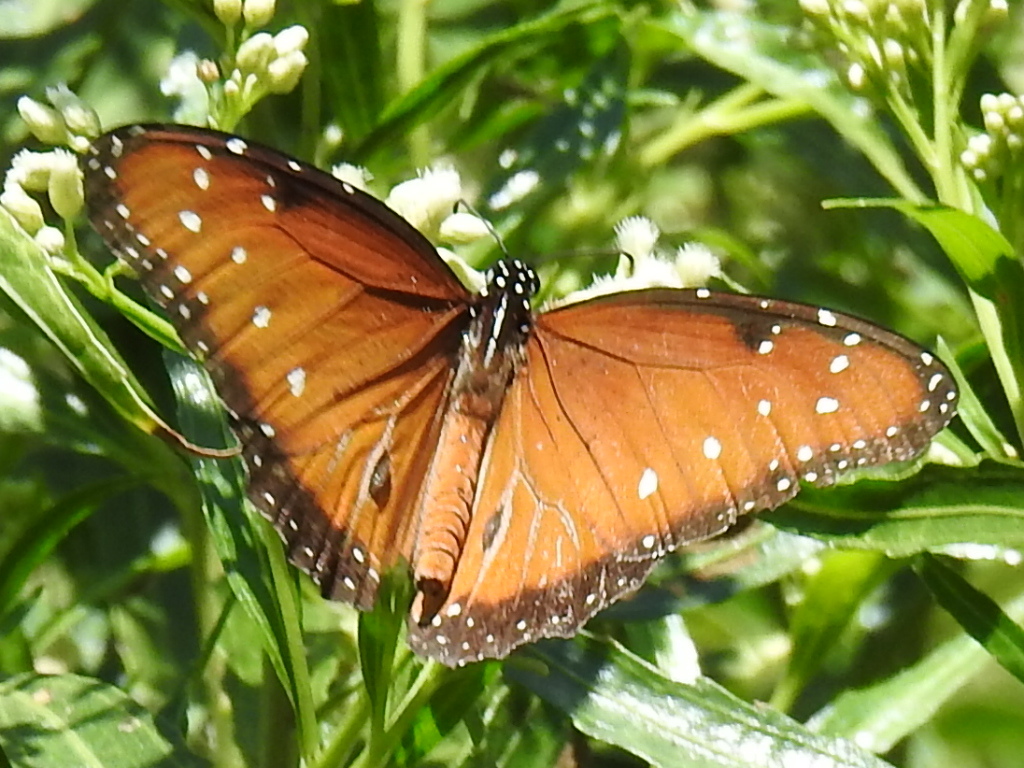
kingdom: Animalia
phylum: Arthropoda
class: Insecta
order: Lepidoptera
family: Nymphalidae
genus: Danaus
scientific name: Danaus gilippus
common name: Queen
